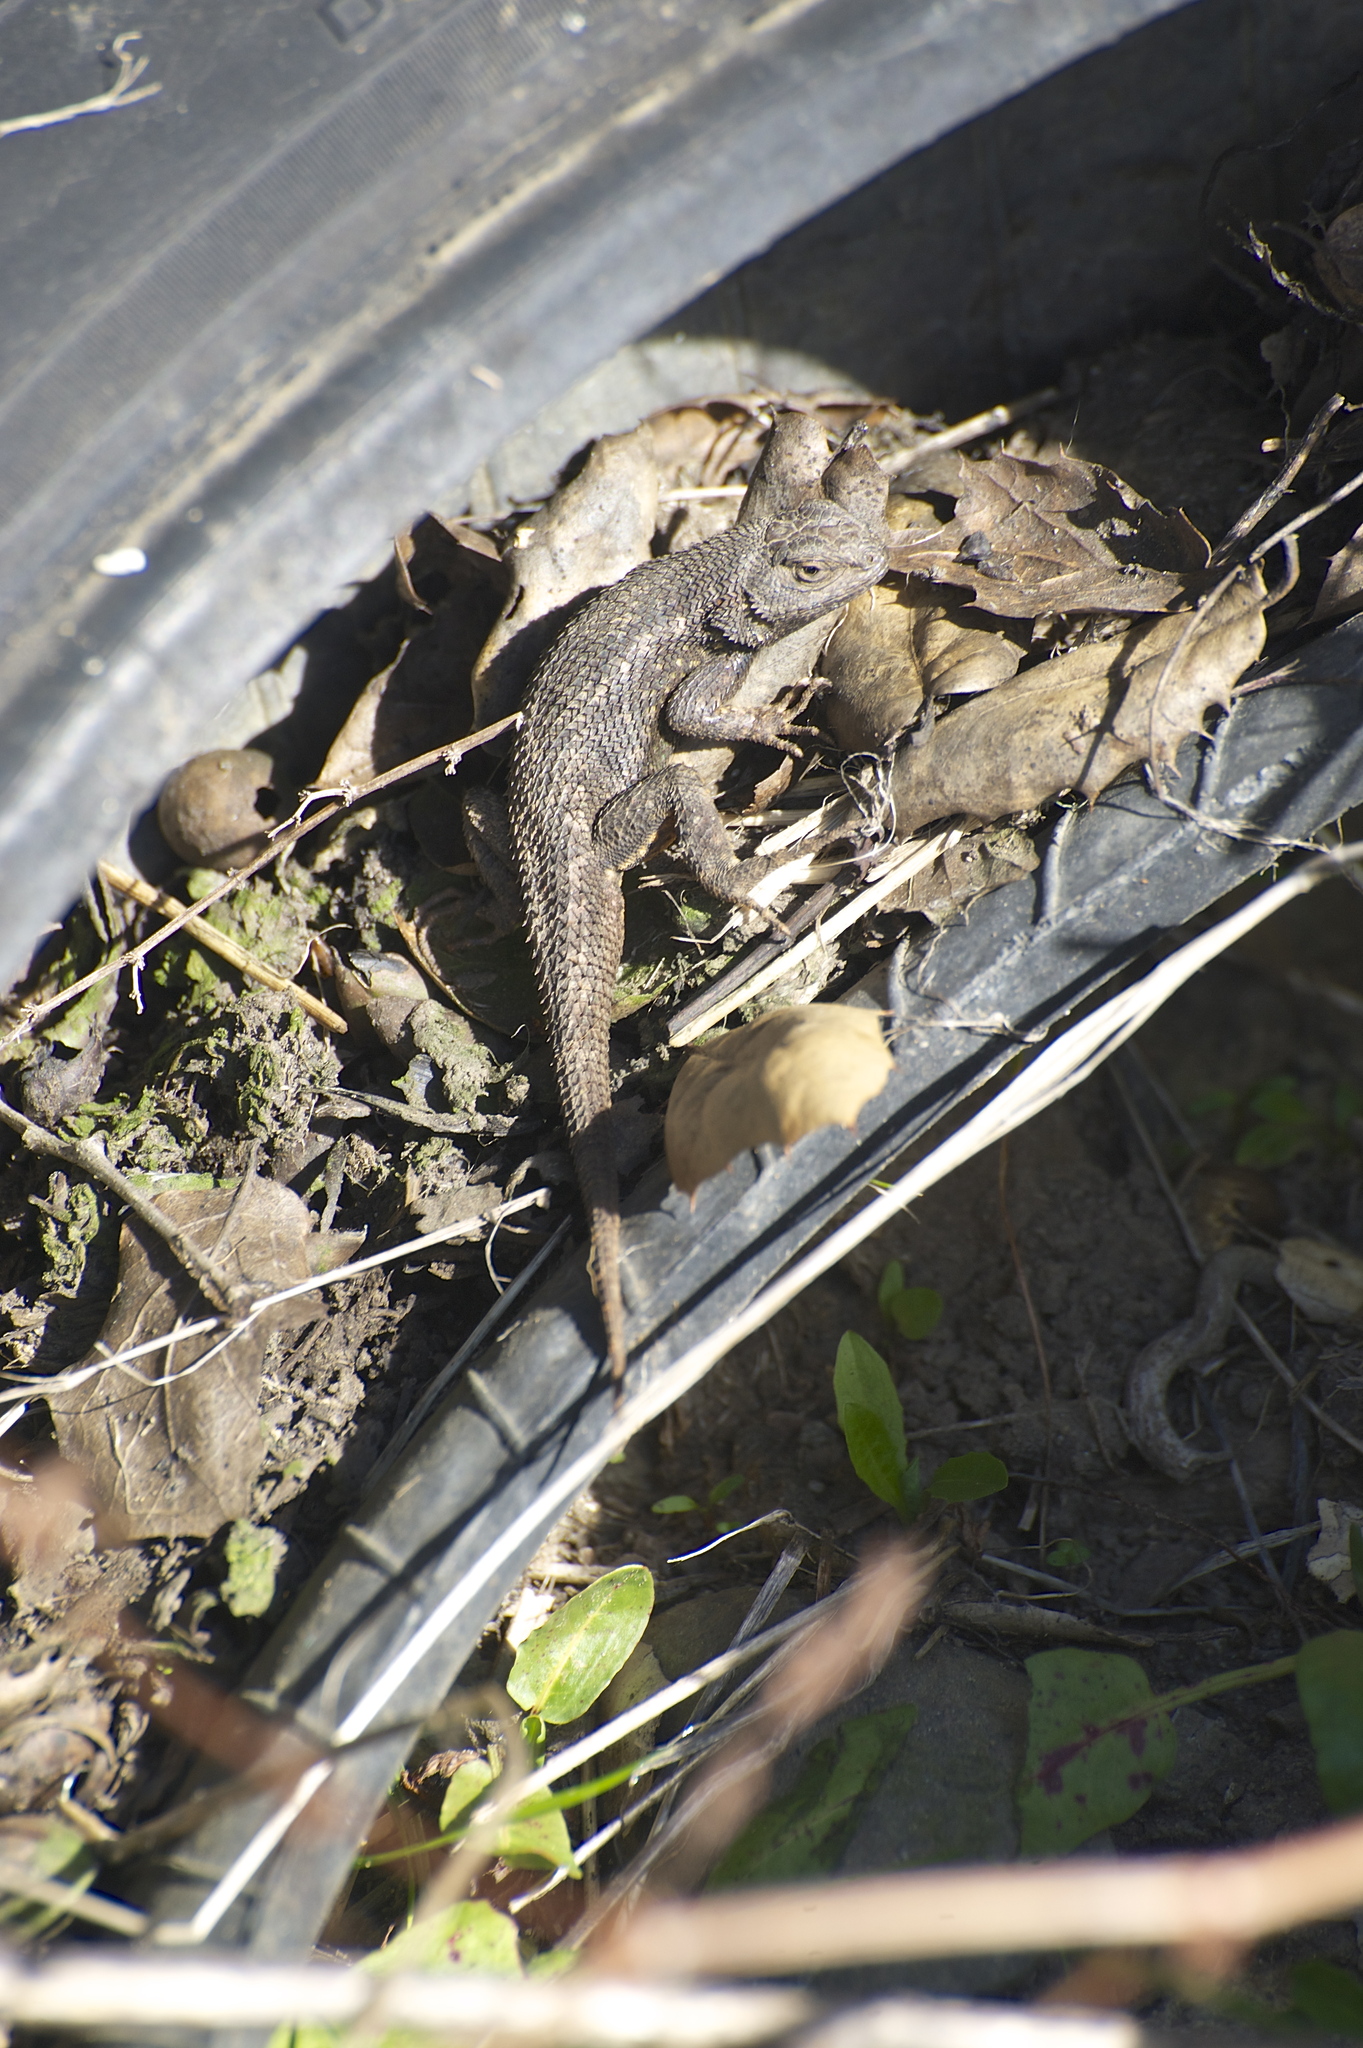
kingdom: Animalia
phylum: Chordata
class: Squamata
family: Phrynosomatidae
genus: Sceloporus
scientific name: Sceloporus occidentalis
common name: Western fence lizard
